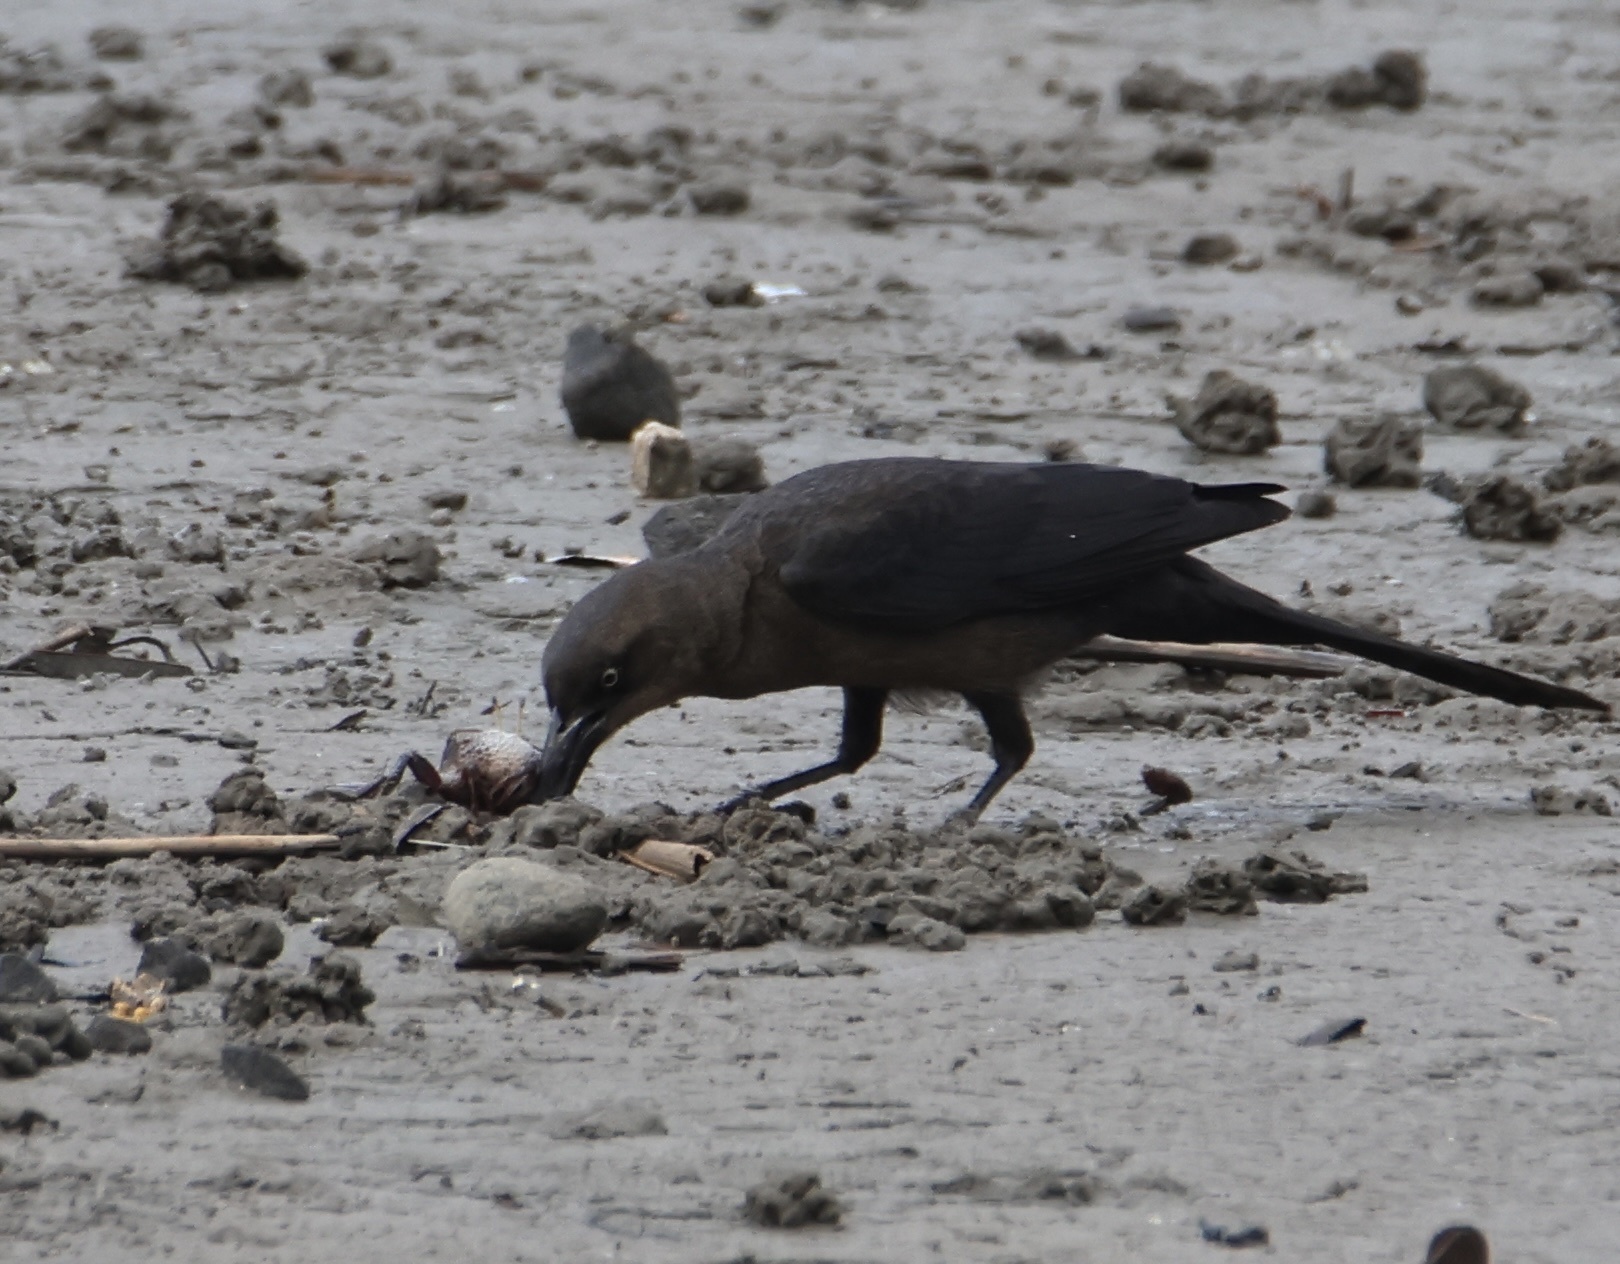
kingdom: Animalia
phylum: Chordata
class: Aves
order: Passeriformes
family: Icteridae
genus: Quiscalus
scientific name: Quiscalus mexicanus
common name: Great-tailed grackle
